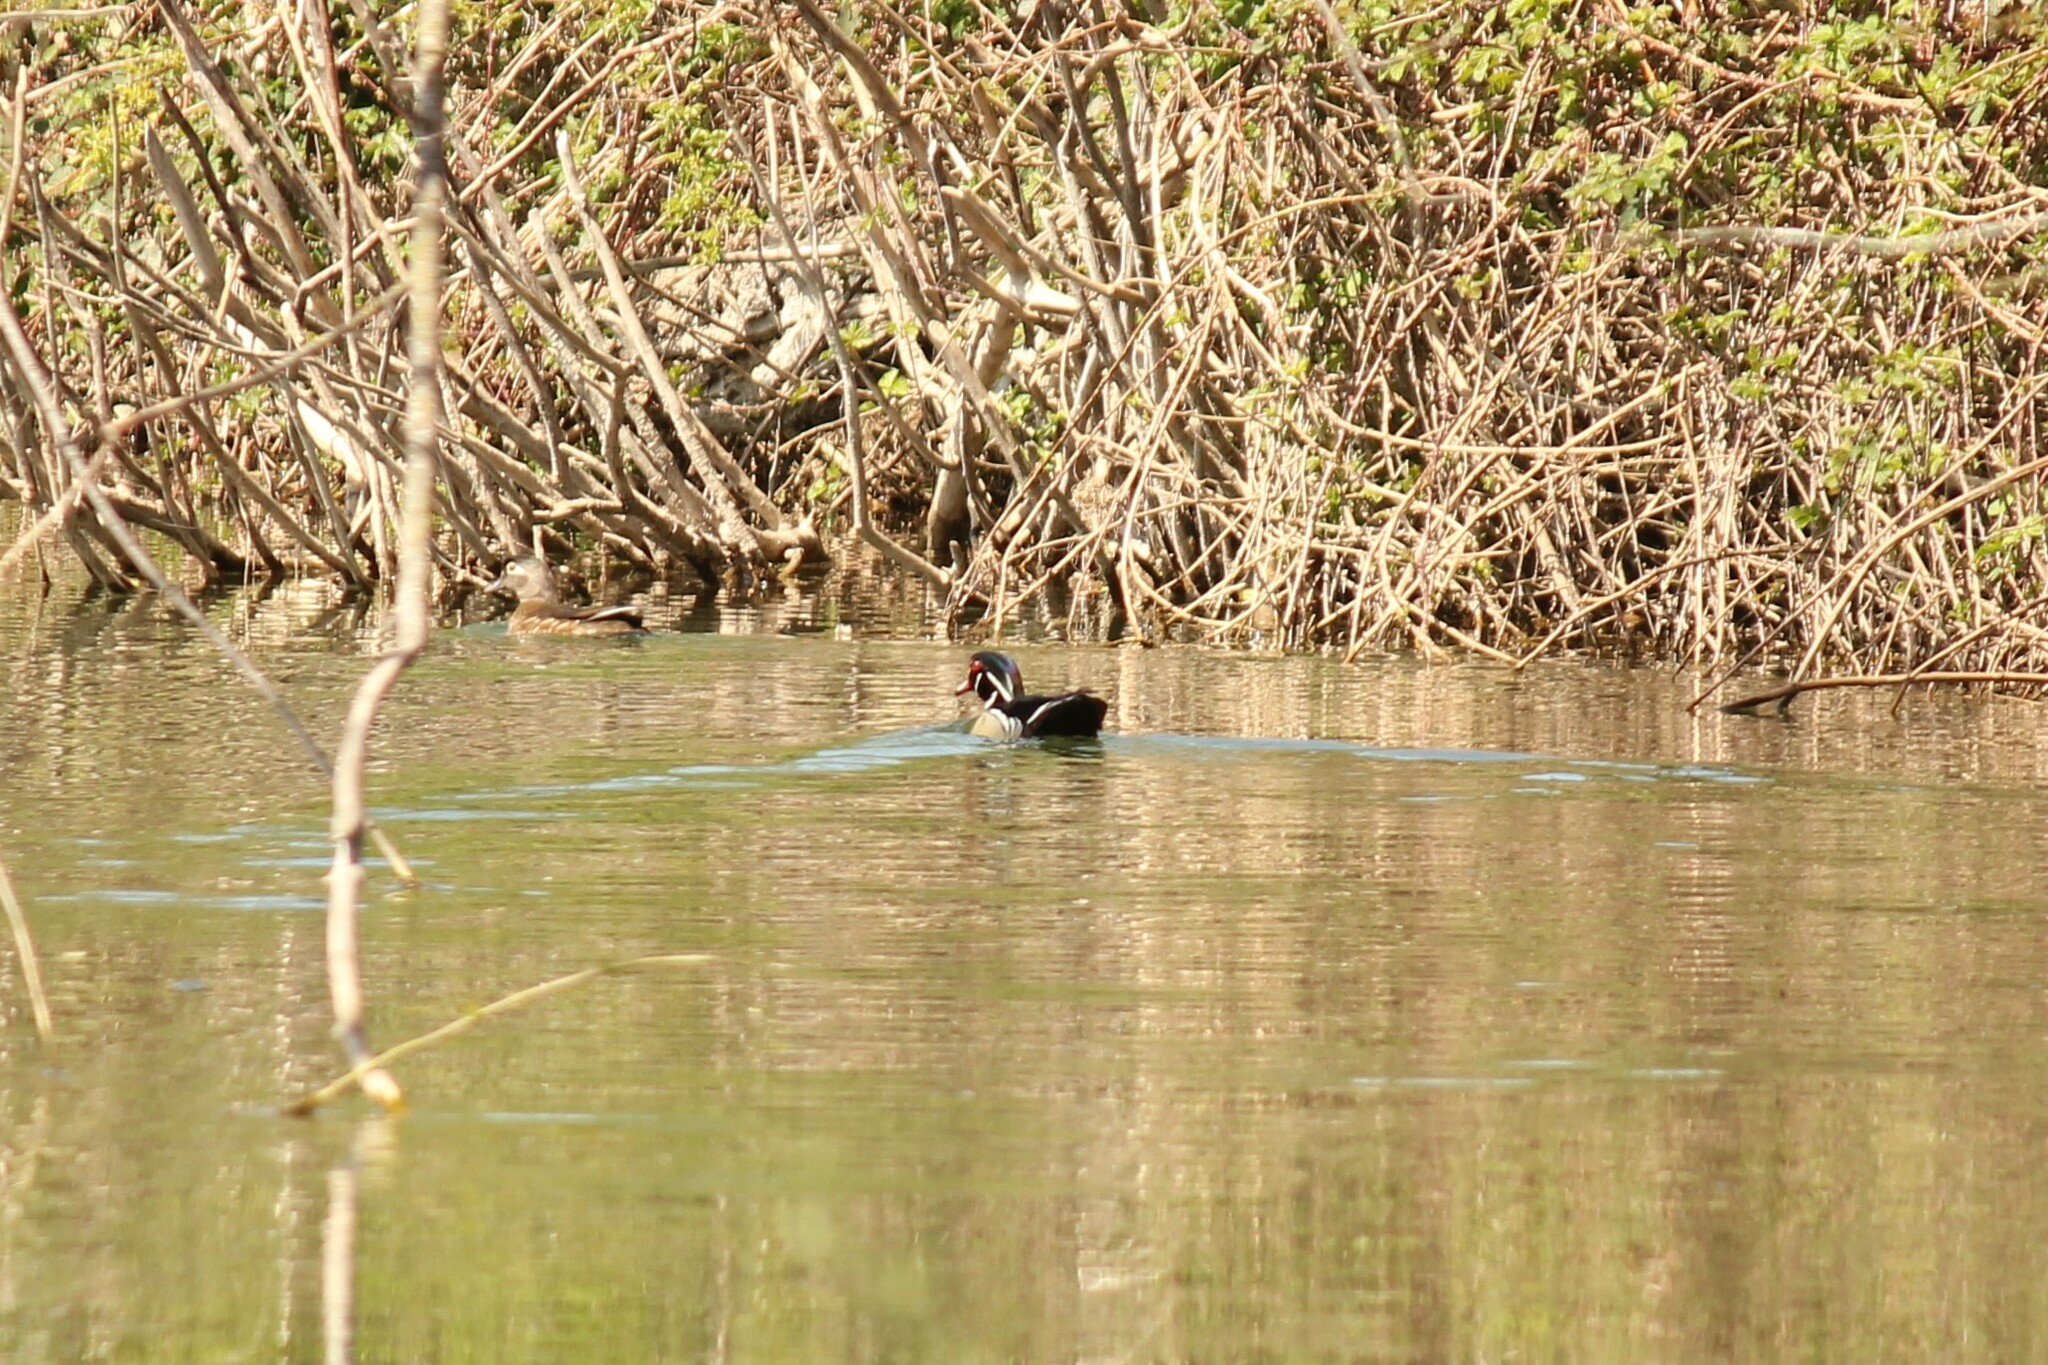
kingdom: Animalia
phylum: Chordata
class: Aves
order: Anseriformes
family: Anatidae
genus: Aix
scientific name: Aix sponsa
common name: Wood duck
